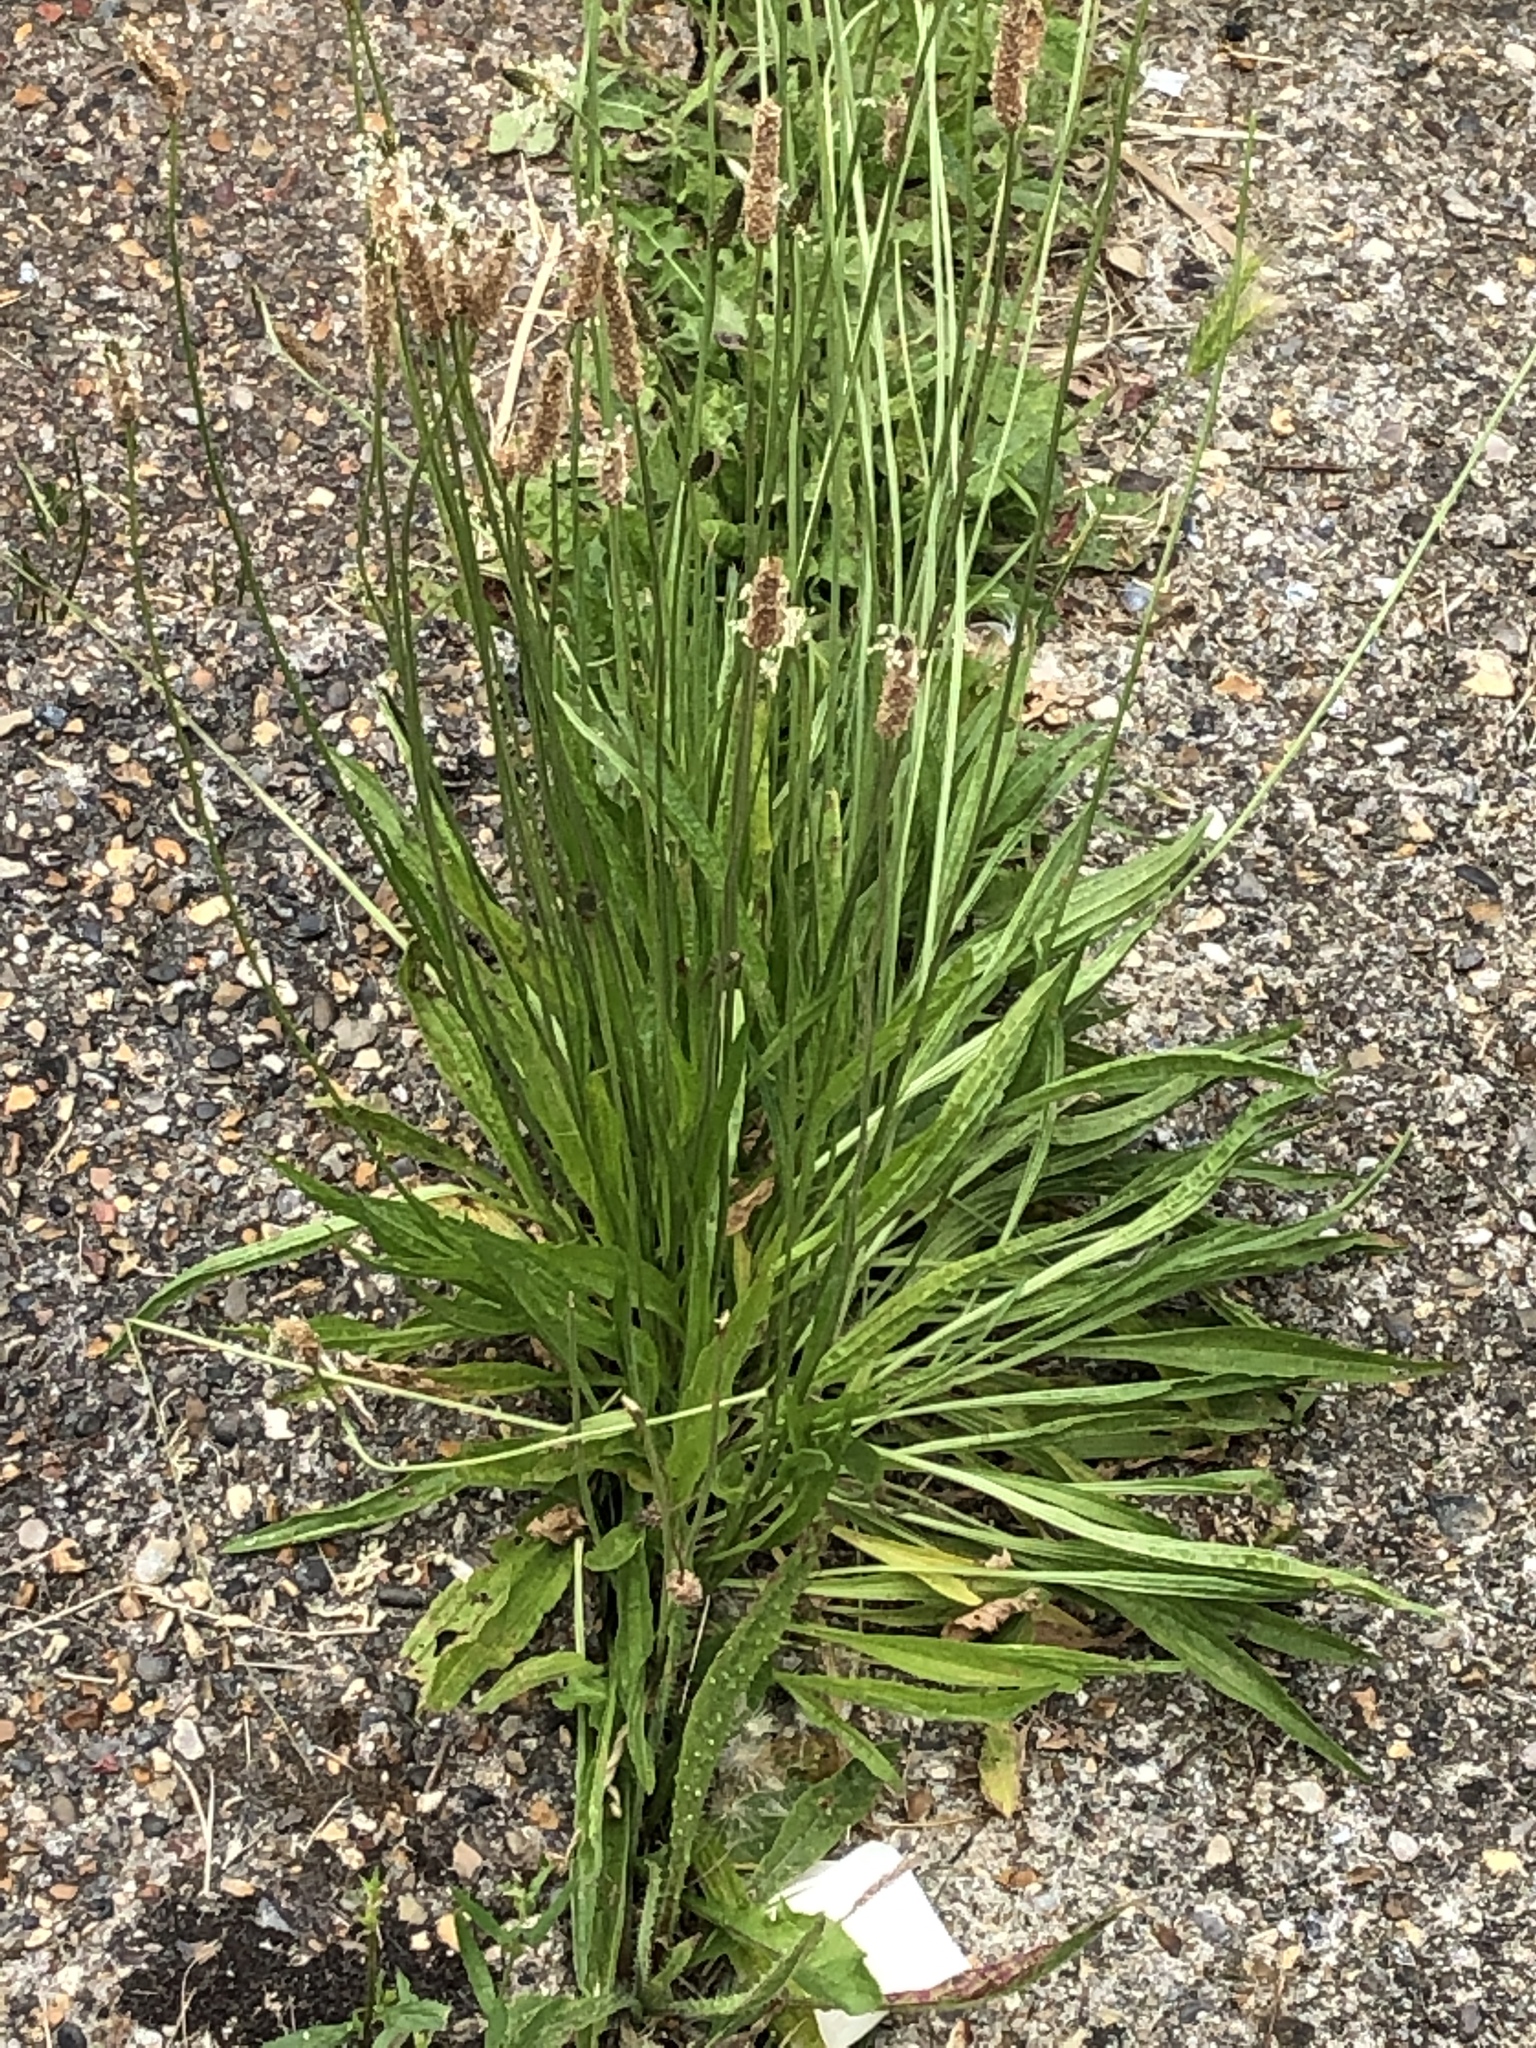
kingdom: Plantae
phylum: Tracheophyta
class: Magnoliopsida
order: Lamiales
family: Plantaginaceae
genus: Plantago
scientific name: Plantago lanceolata
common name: Ribwort plantain
